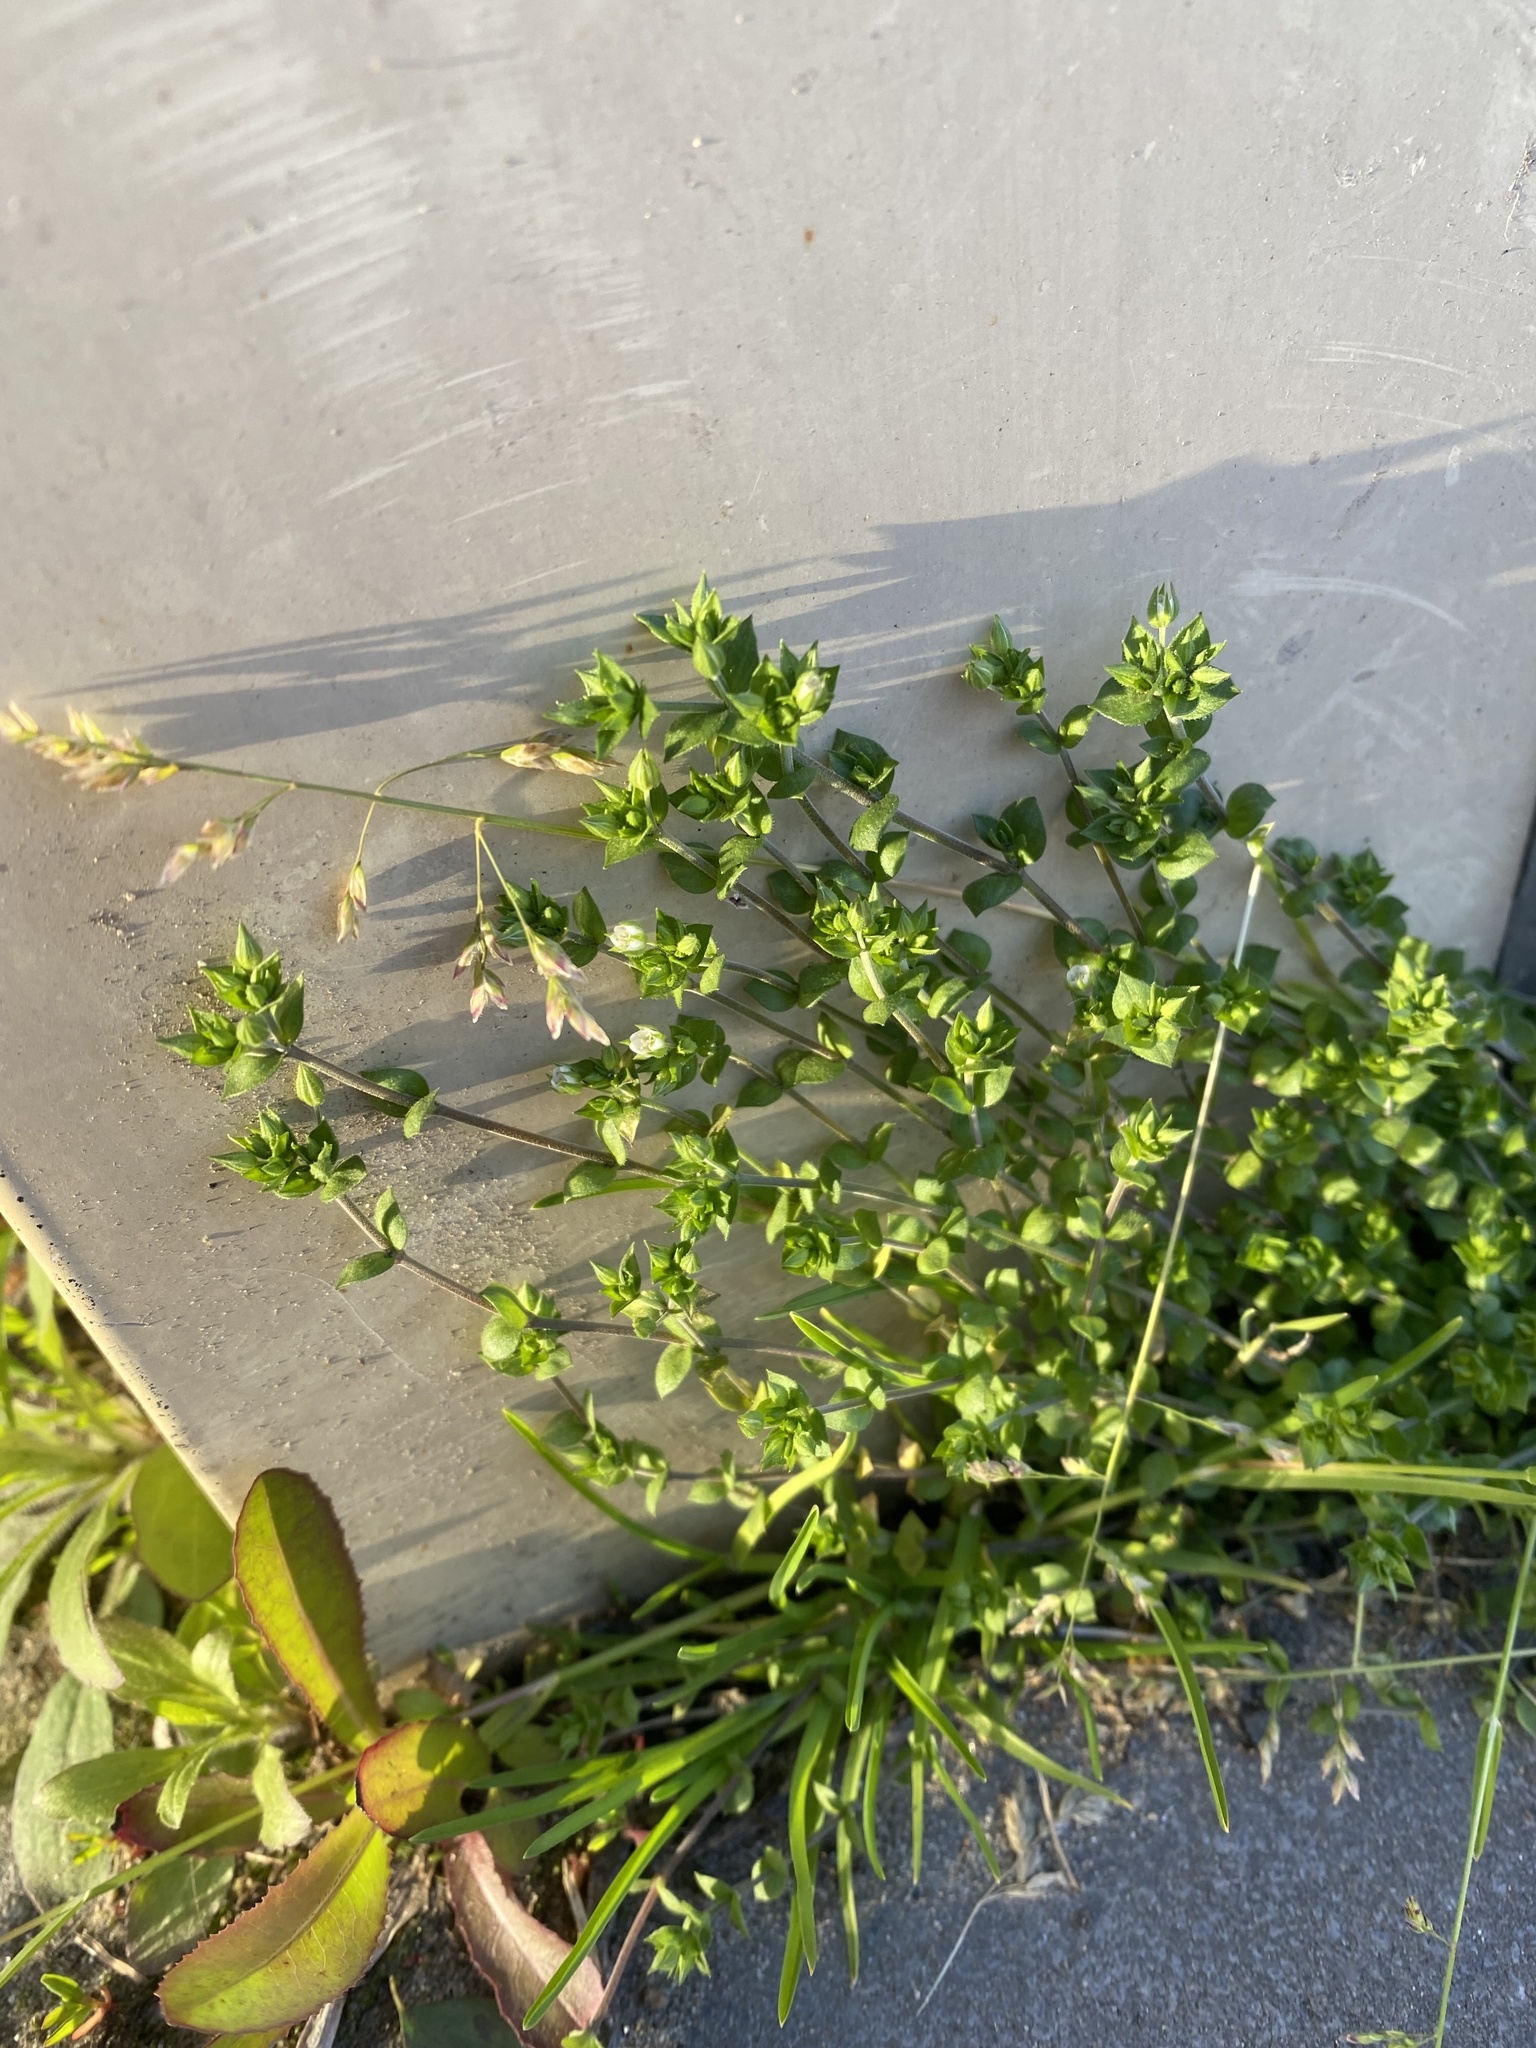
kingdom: Plantae
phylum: Tracheophyta
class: Magnoliopsida
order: Caryophyllales
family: Caryophyllaceae
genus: Arenaria
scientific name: Arenaria serpyllifolia
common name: Thyme-leaved sandwort
